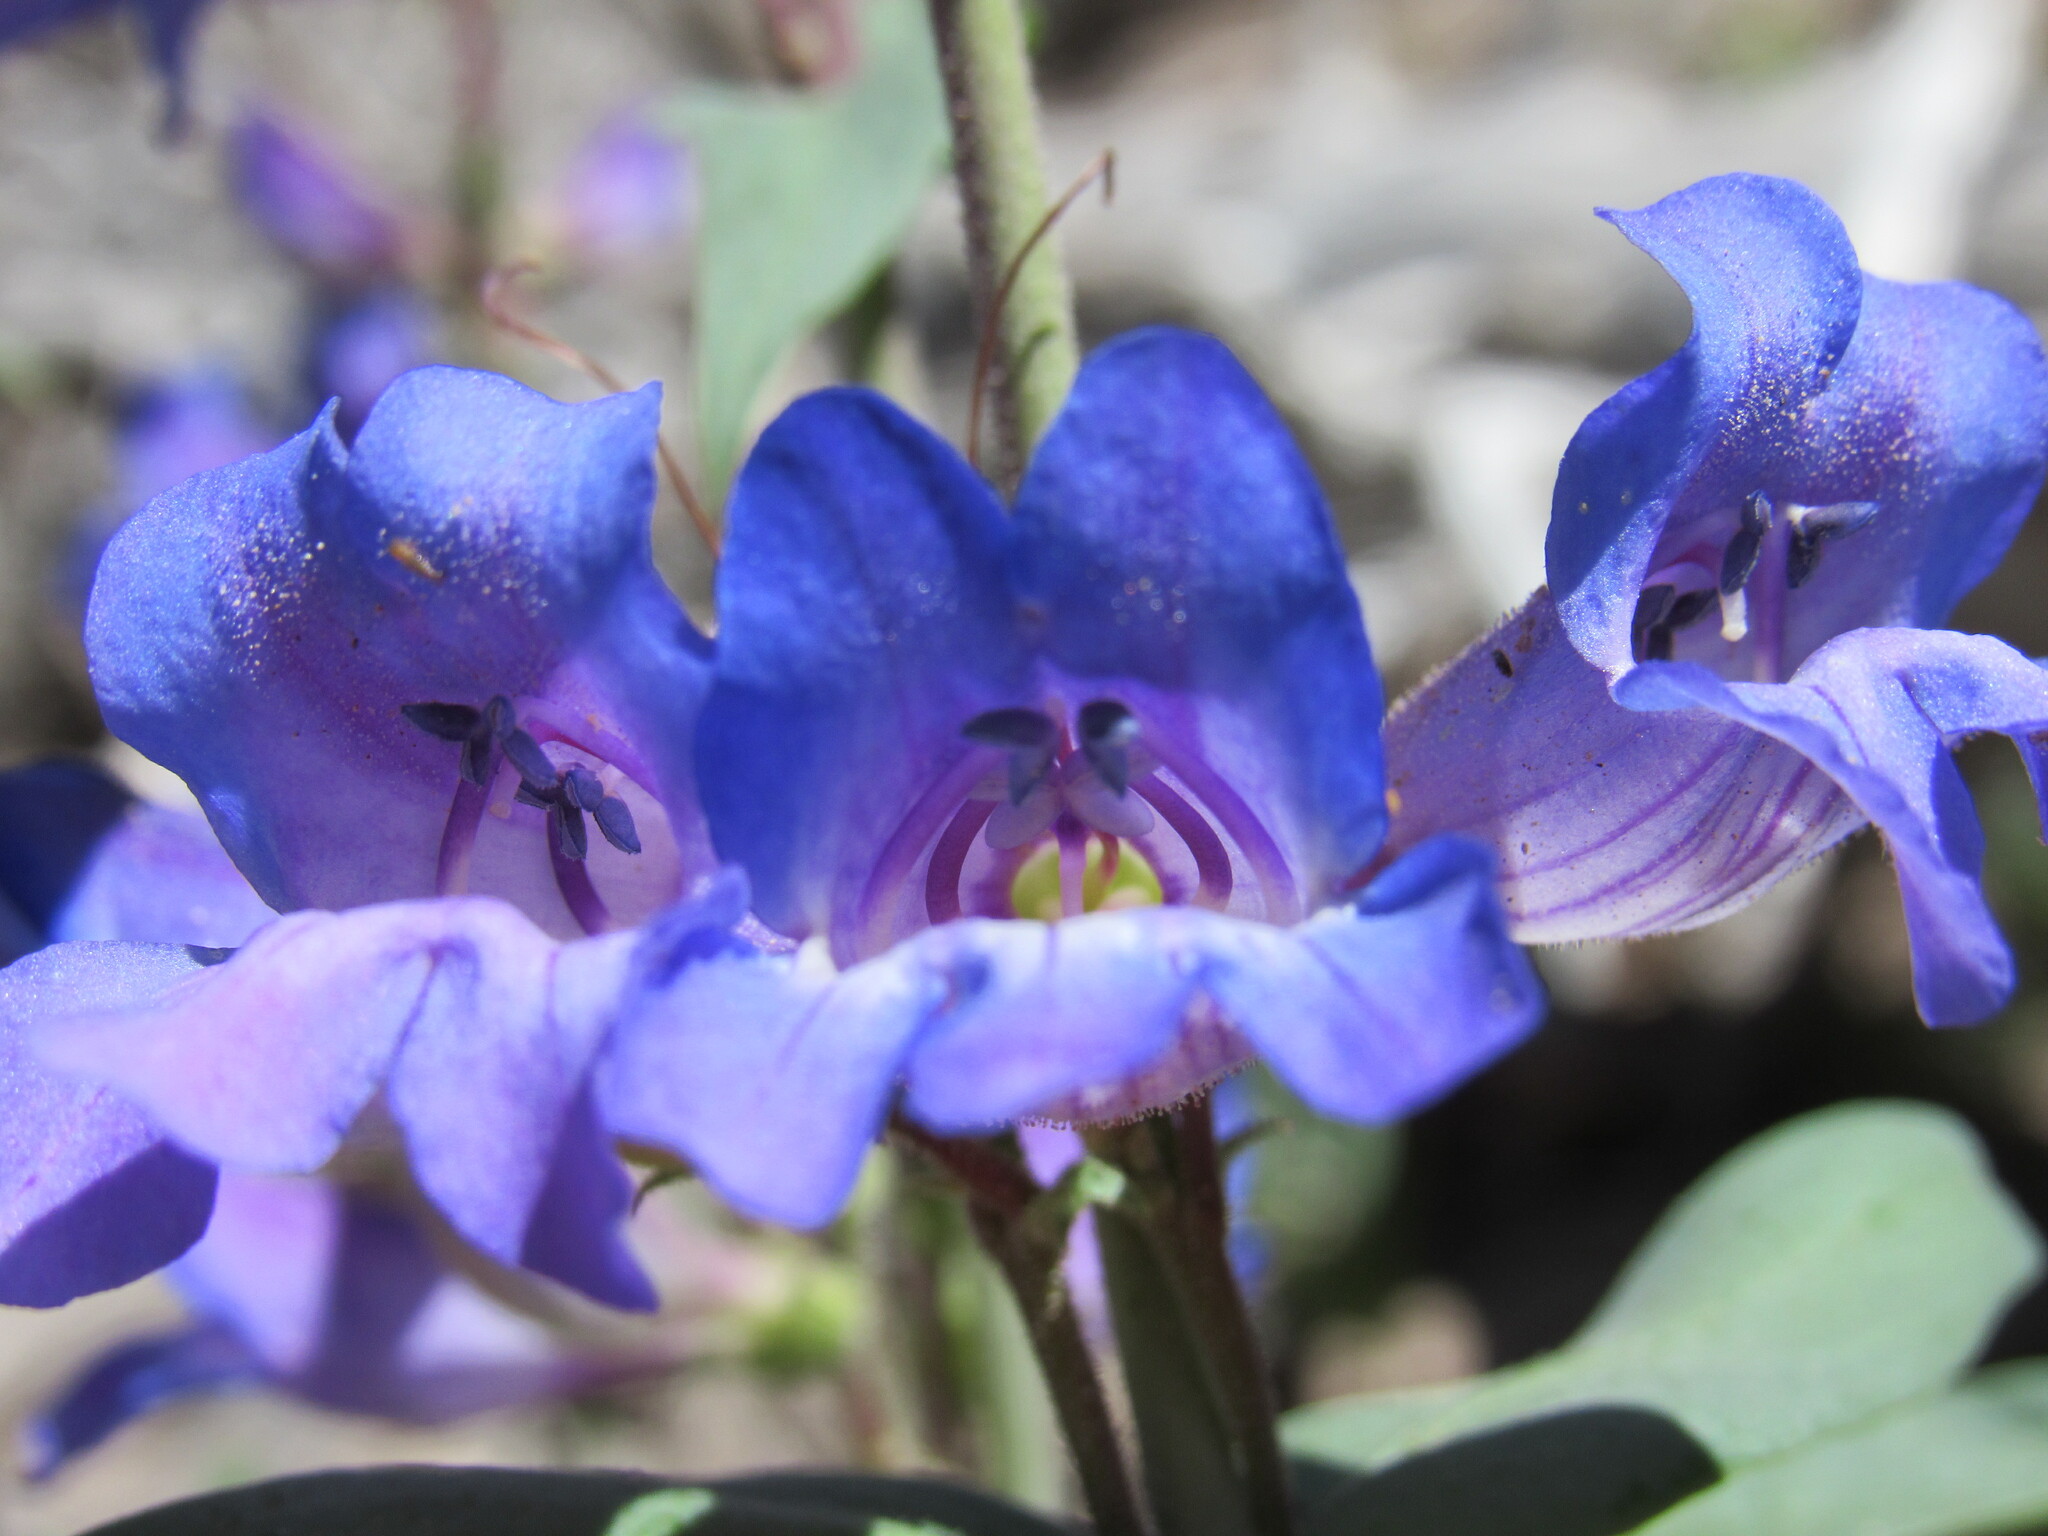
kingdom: Plantae
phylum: Tracheophyta
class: Magnoliopsida
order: Lamiales
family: Plantaginaceae
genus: Penstemon
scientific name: Penstemon leiophyllus
